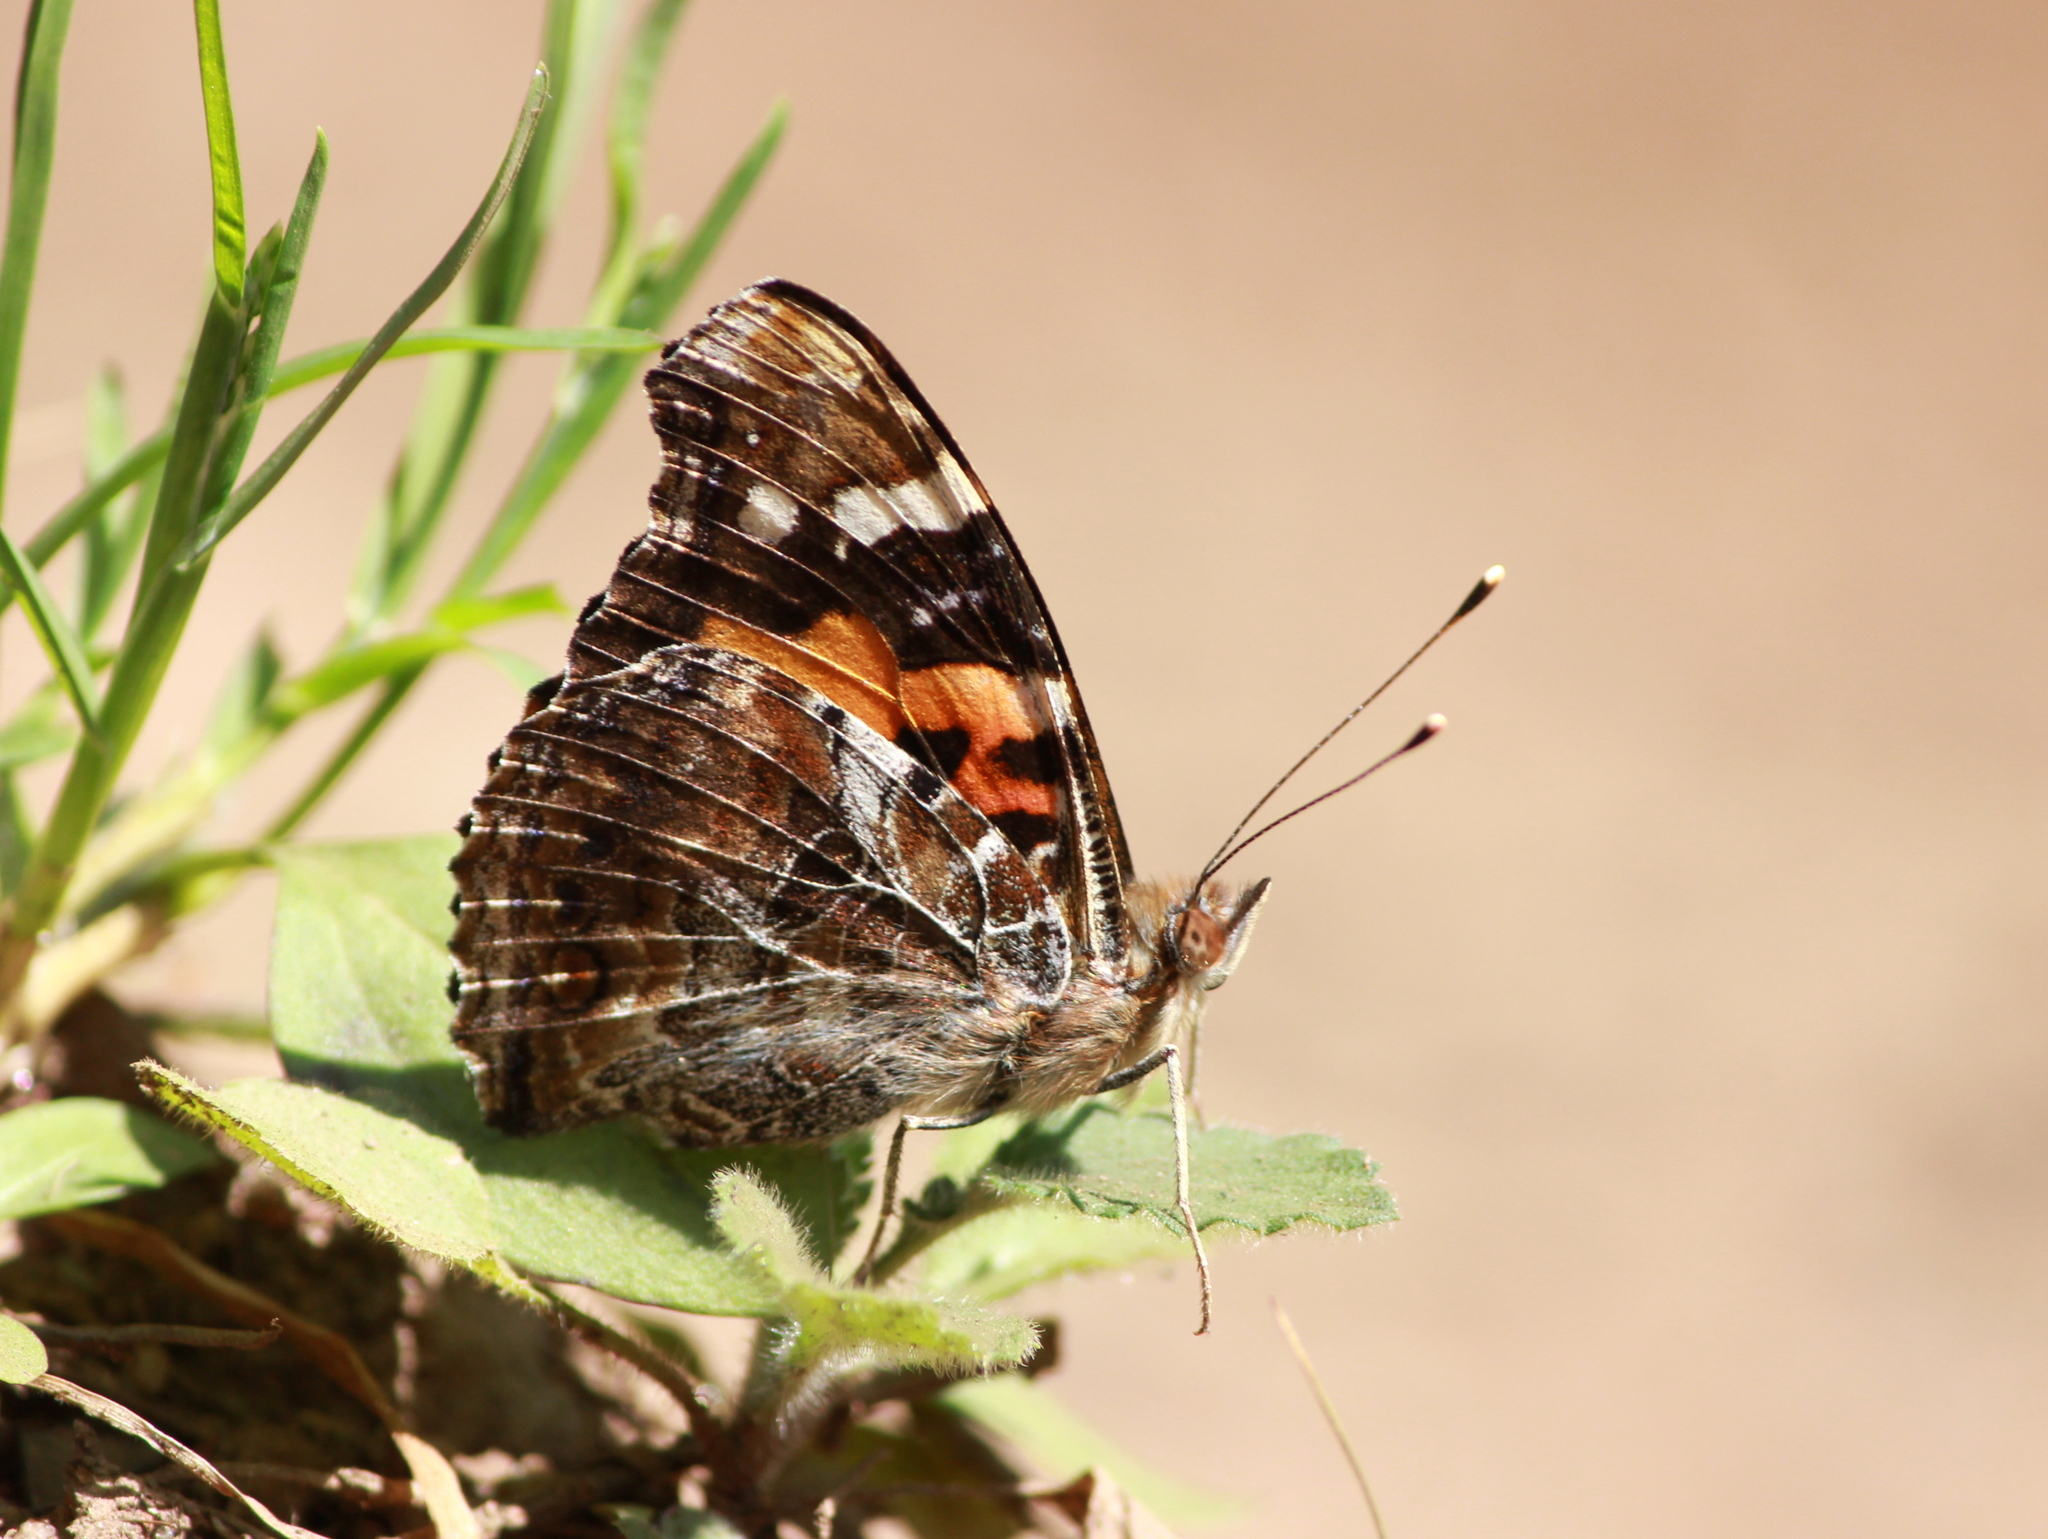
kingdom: Animalia
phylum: Arthropoda
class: Insecta
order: Lepidoptera
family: Nymphalidae
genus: Vanessa
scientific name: Vanessa indica
